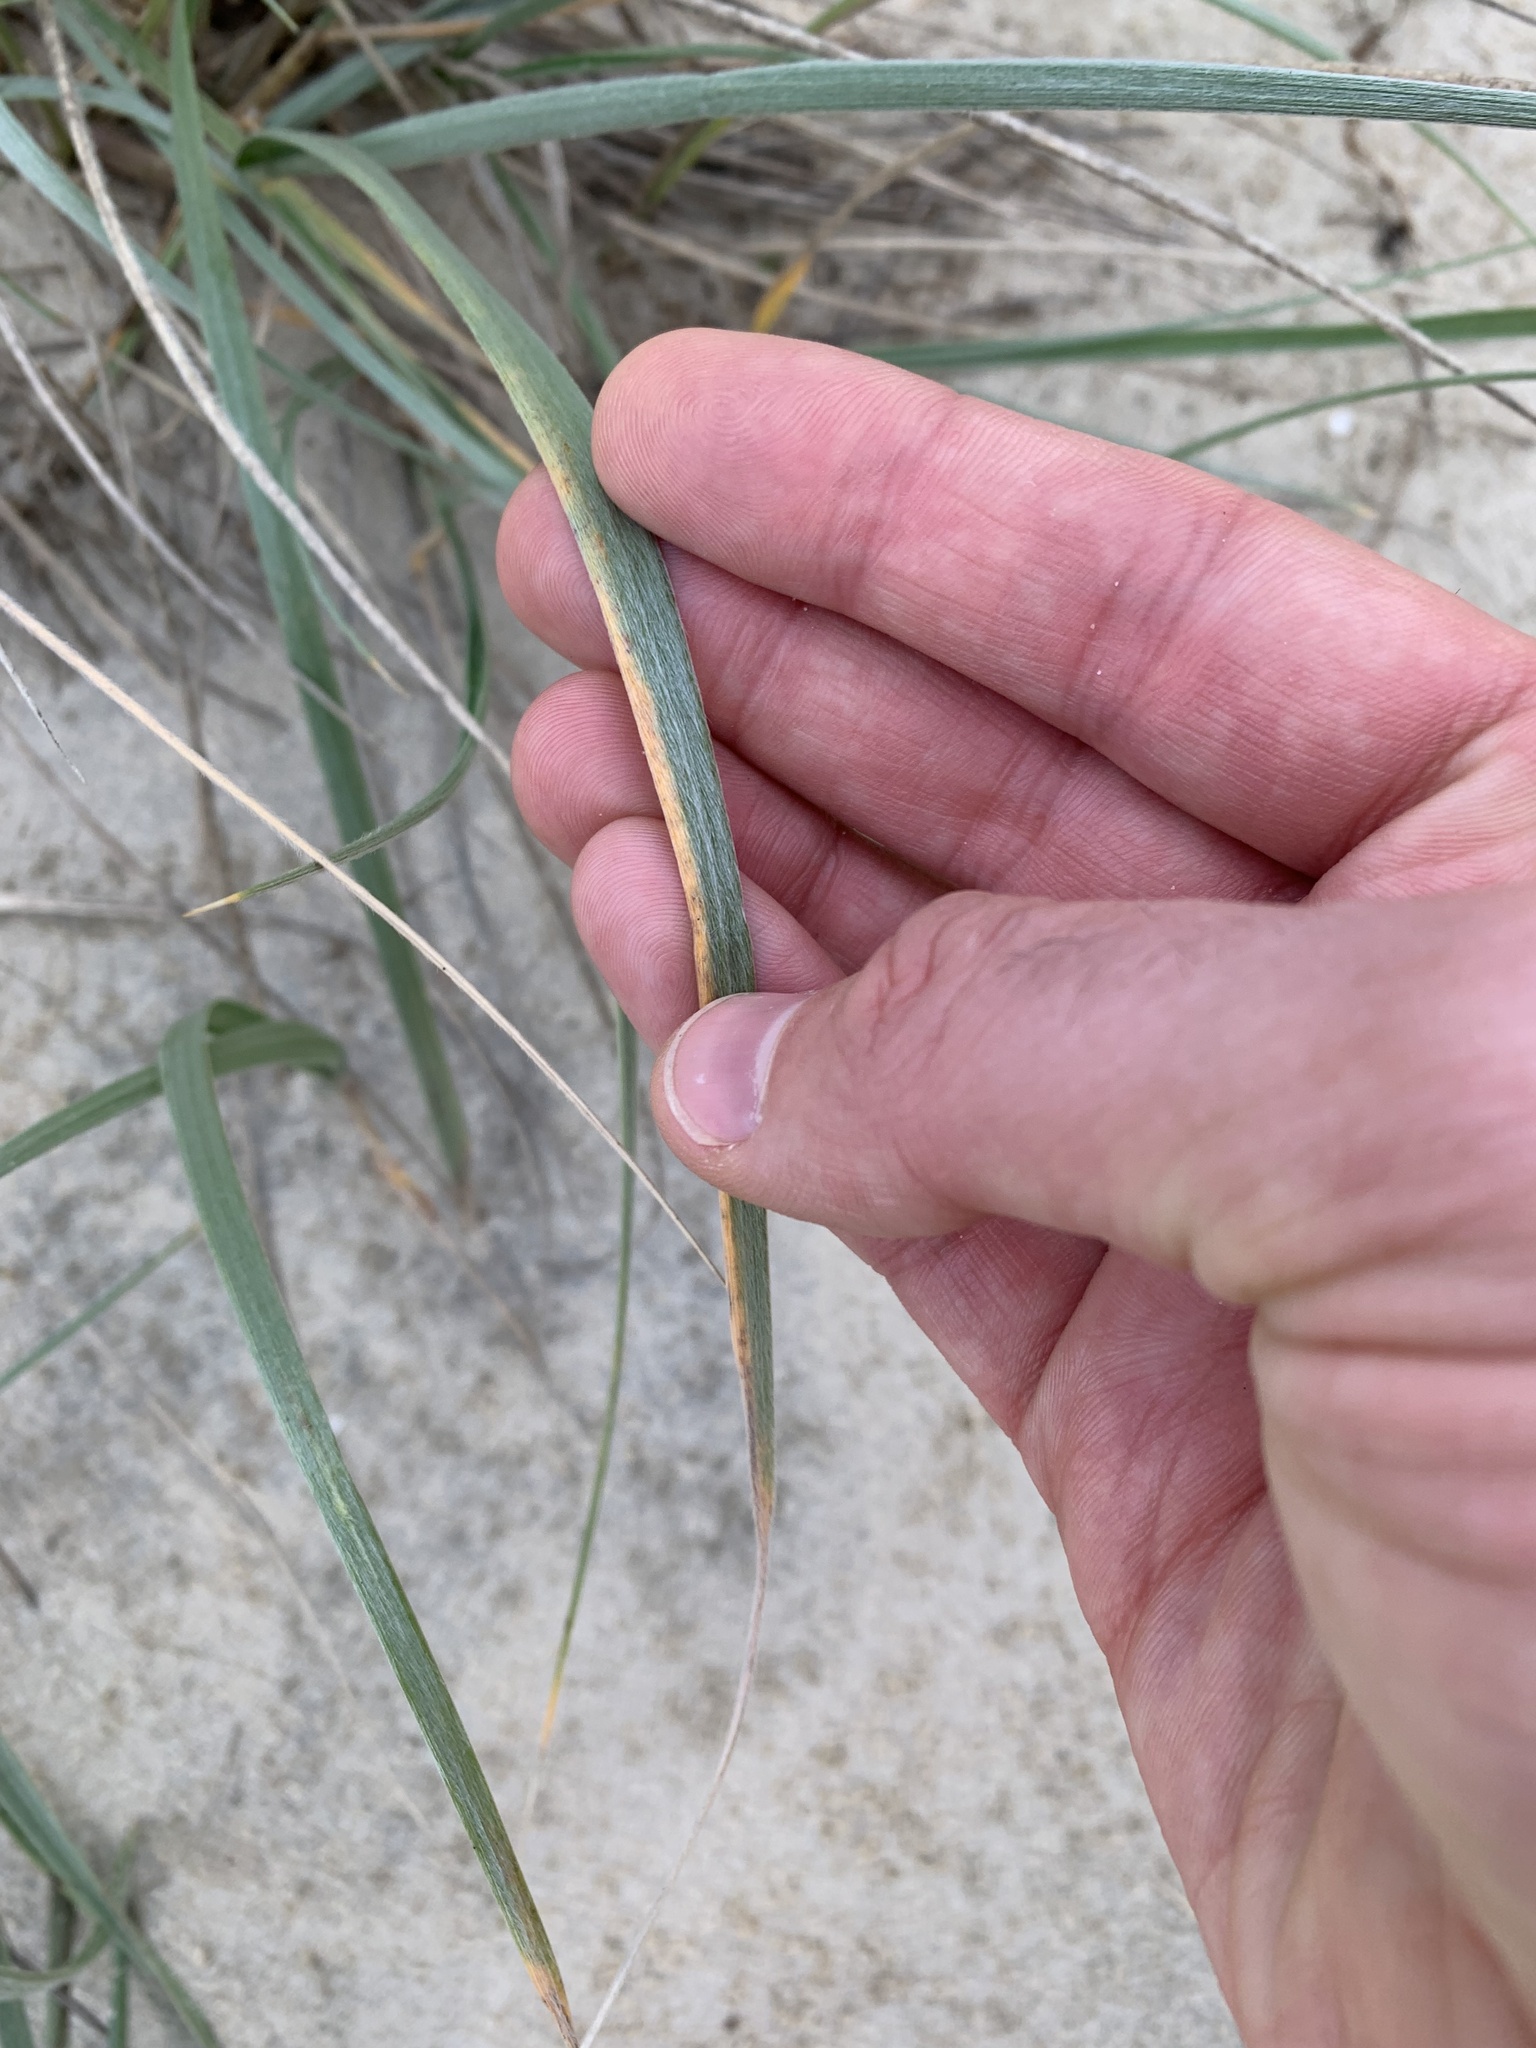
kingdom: Plantae
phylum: Tracheophyta
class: Liliopsida
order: Poales
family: Poaceae
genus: Spinifex
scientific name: Spinifex sericeus
